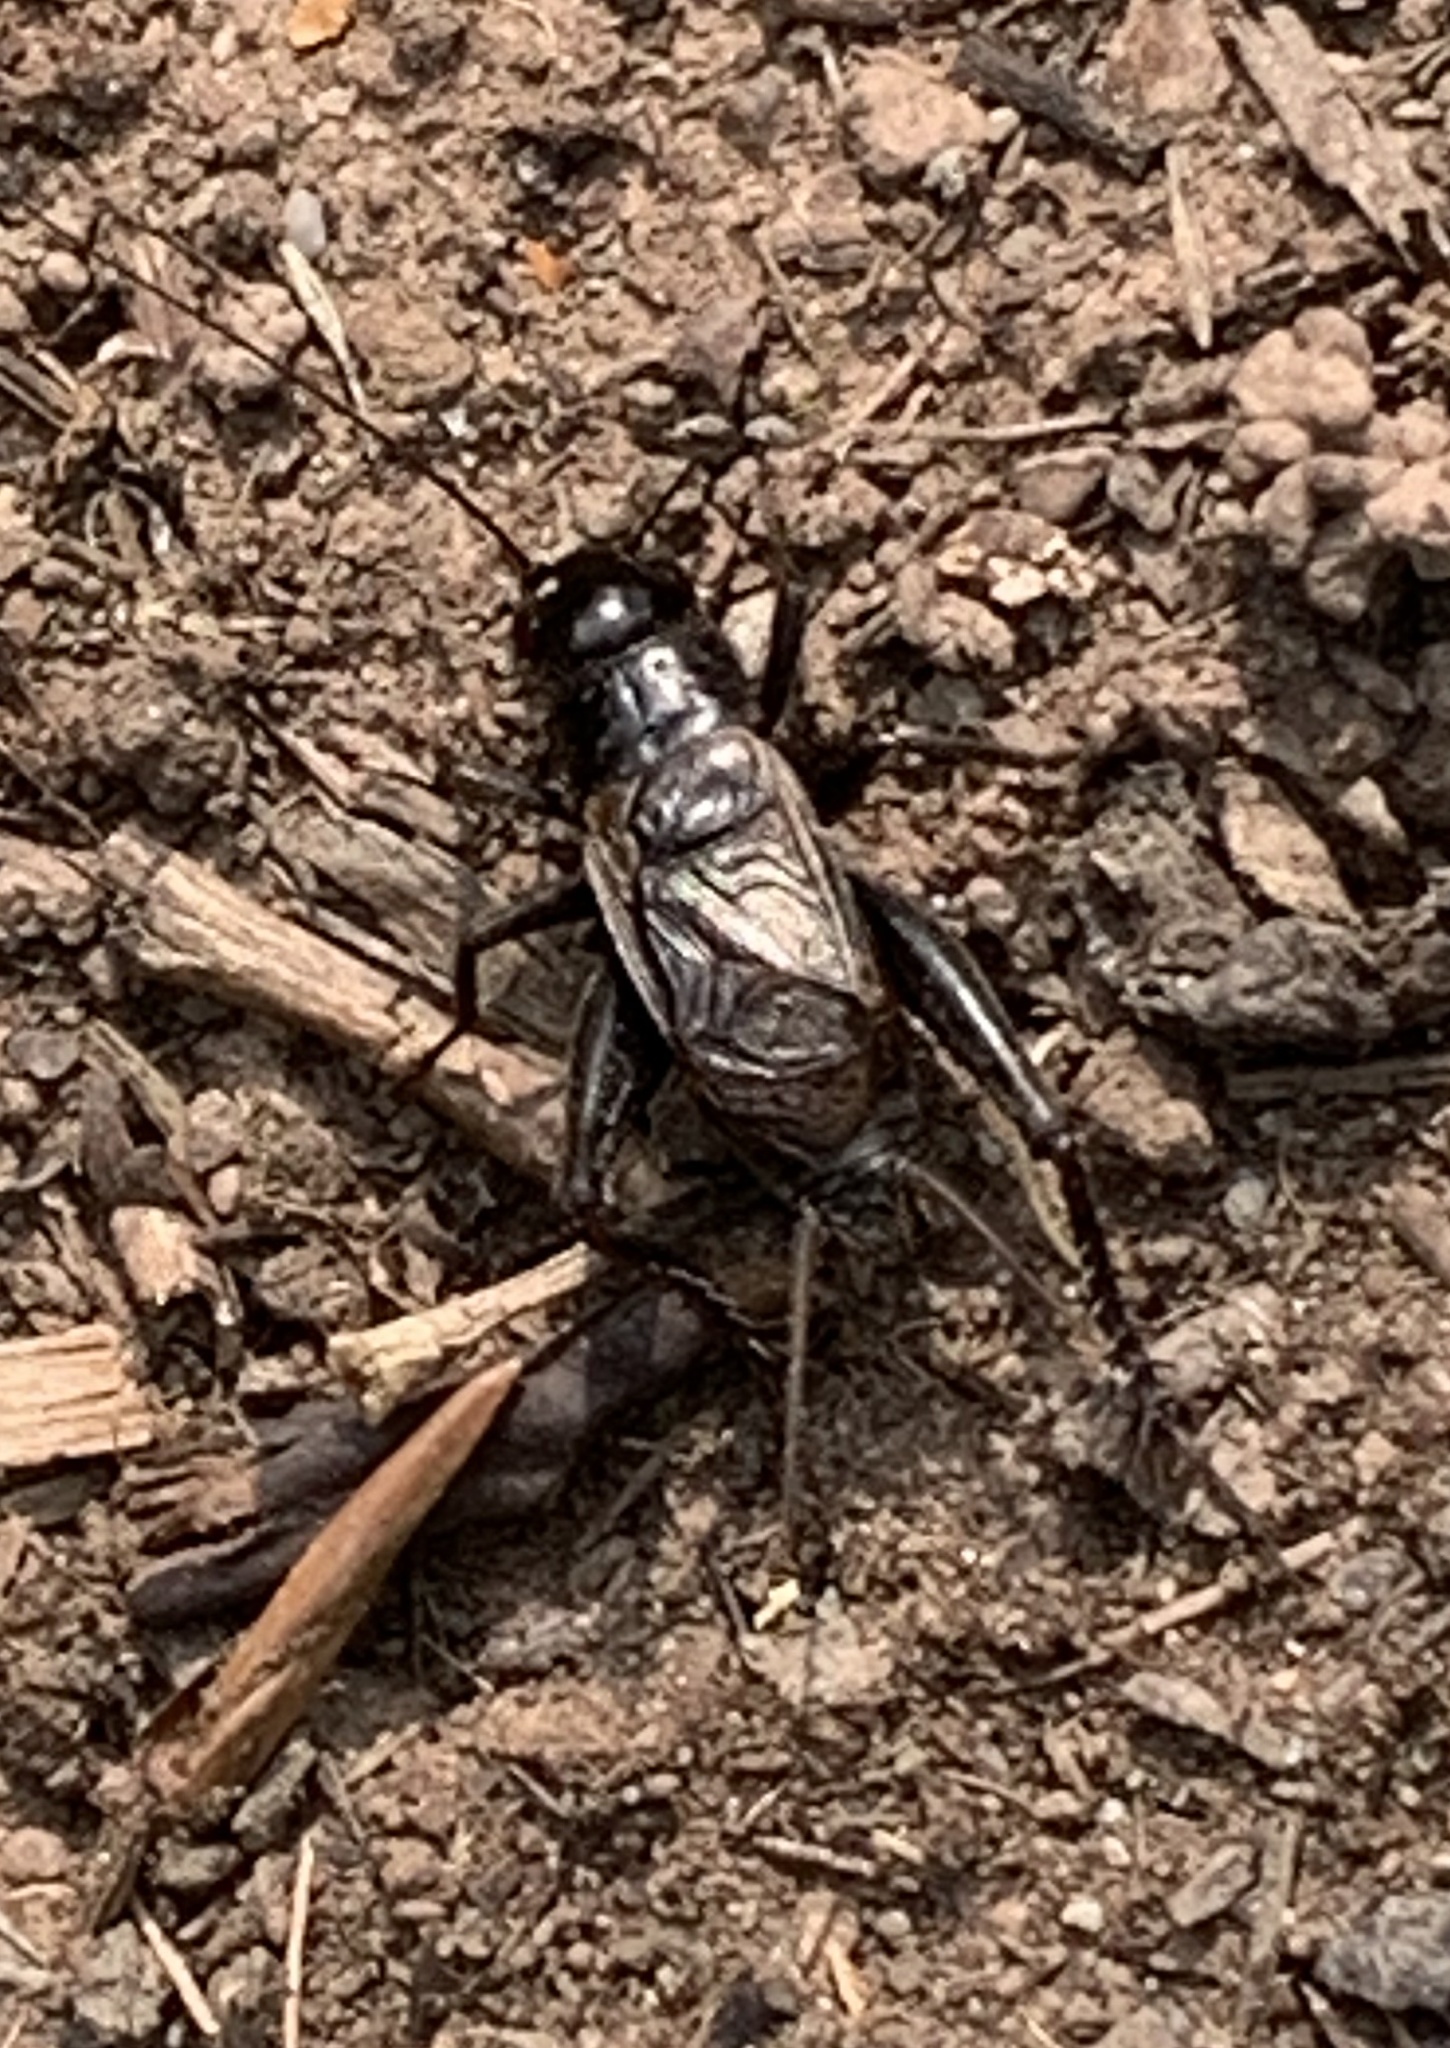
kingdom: Animalia
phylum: Arthropoda
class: Insecta
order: Orthoptera
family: Gryllidae
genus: Gryllus
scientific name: Gryllus pennsylvanicus
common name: Fall field cricket
